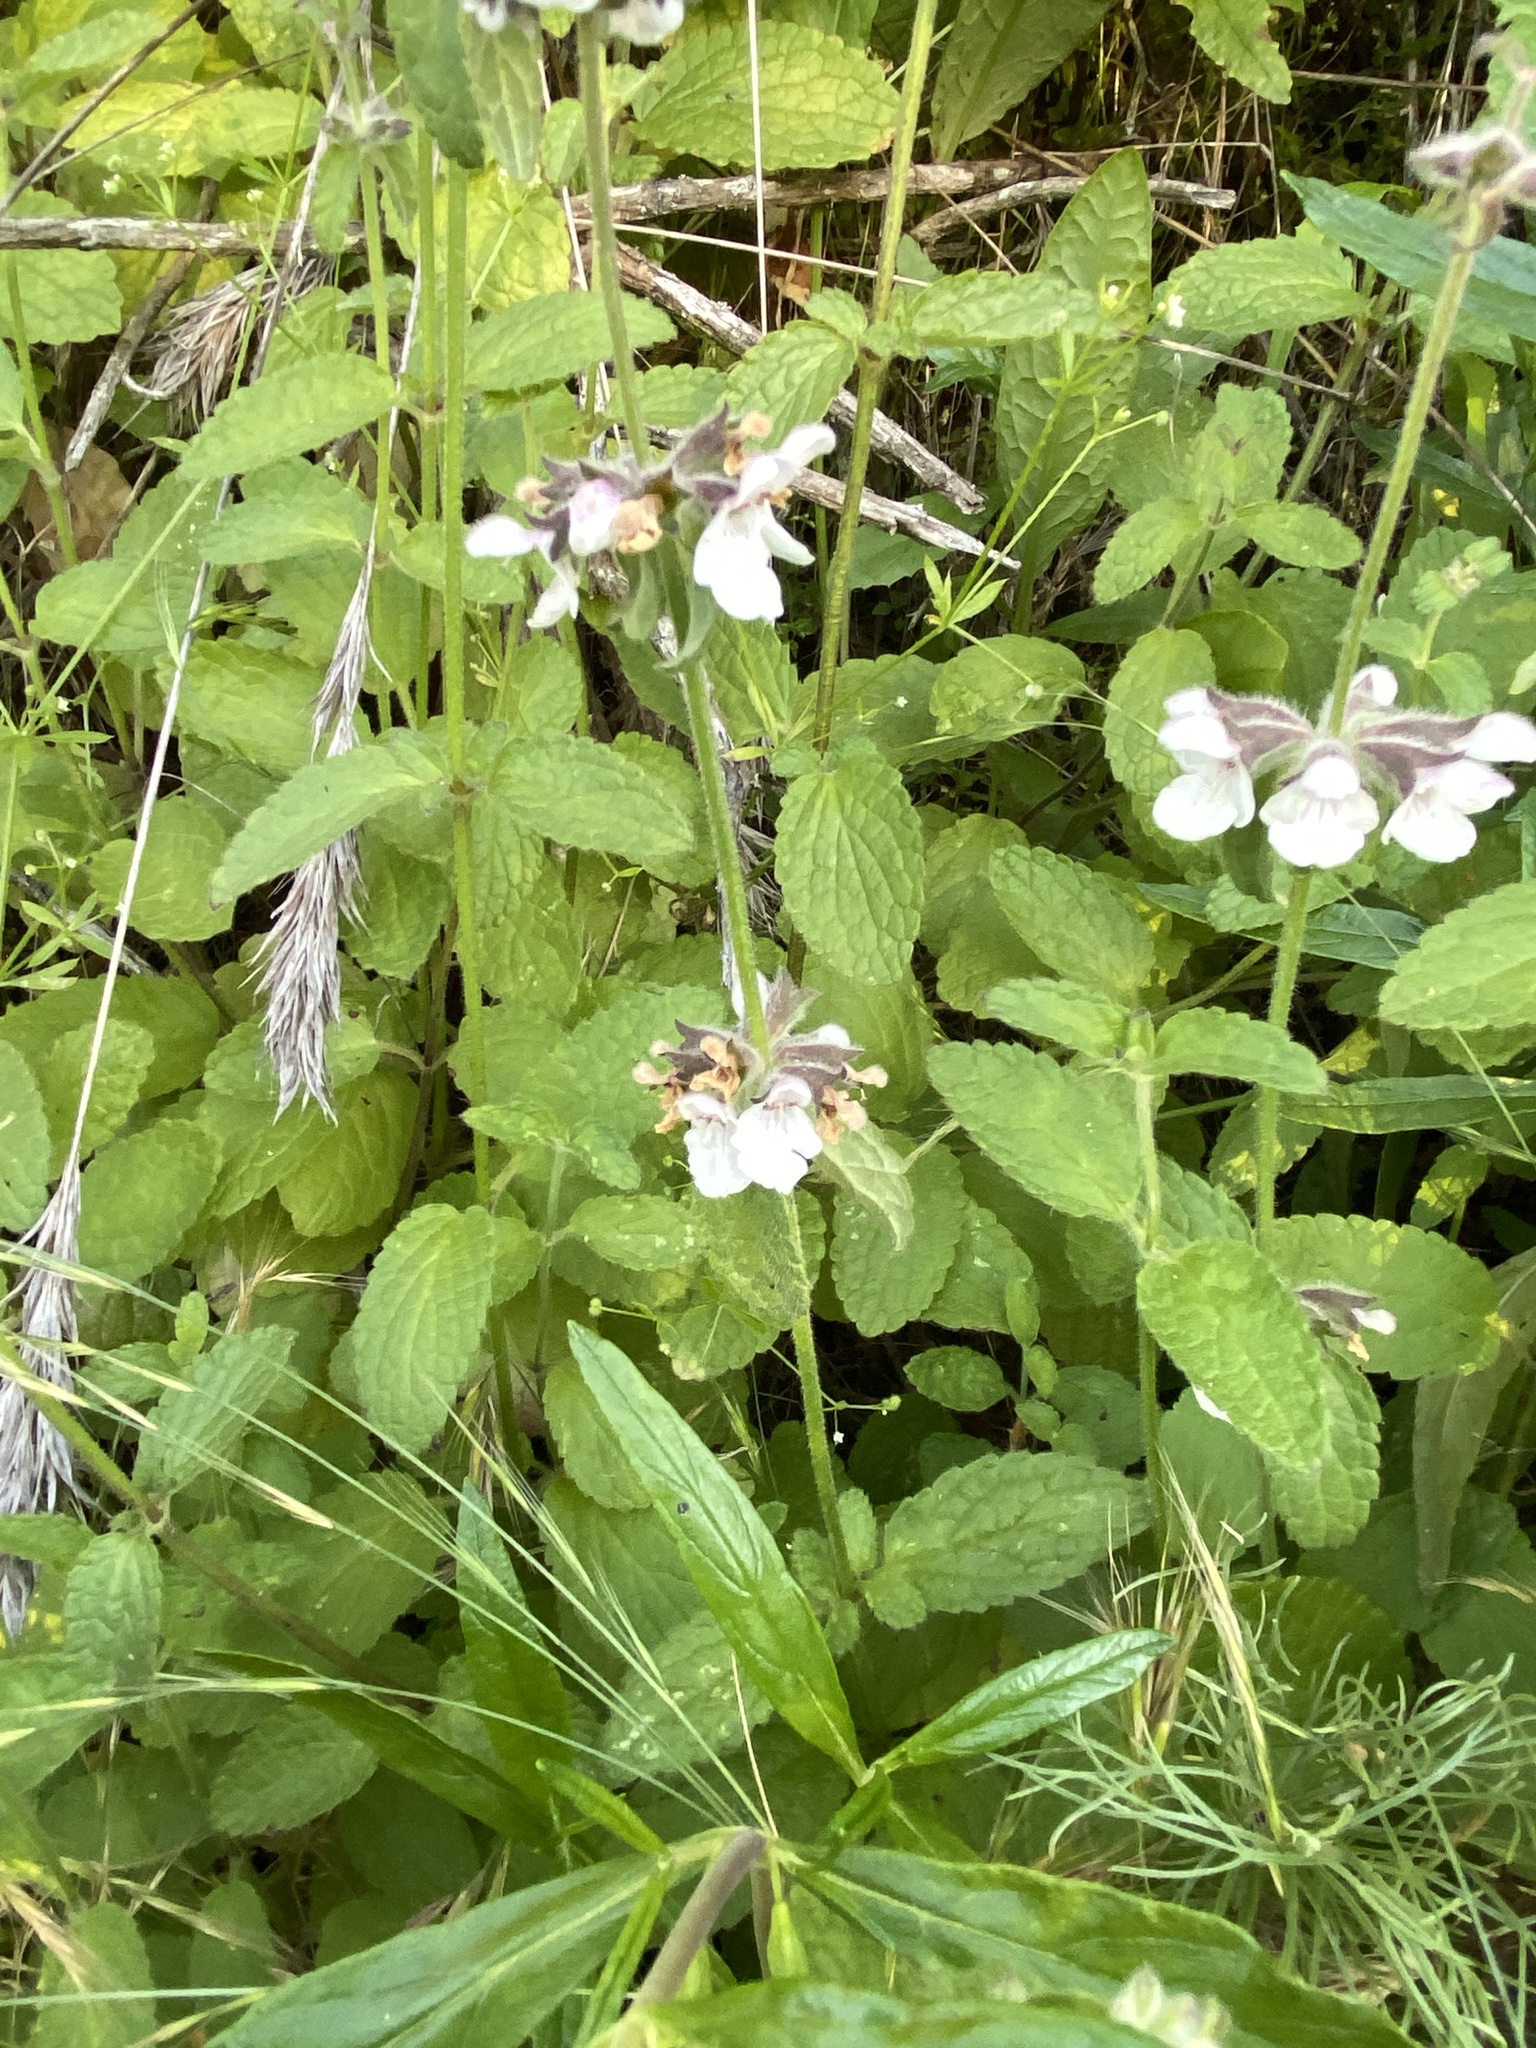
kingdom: Plantae
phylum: Tracheophyta
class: Magnoliopsida
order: Lamiales
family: Lamiaceae
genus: Stachys
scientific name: Stachys rigida
